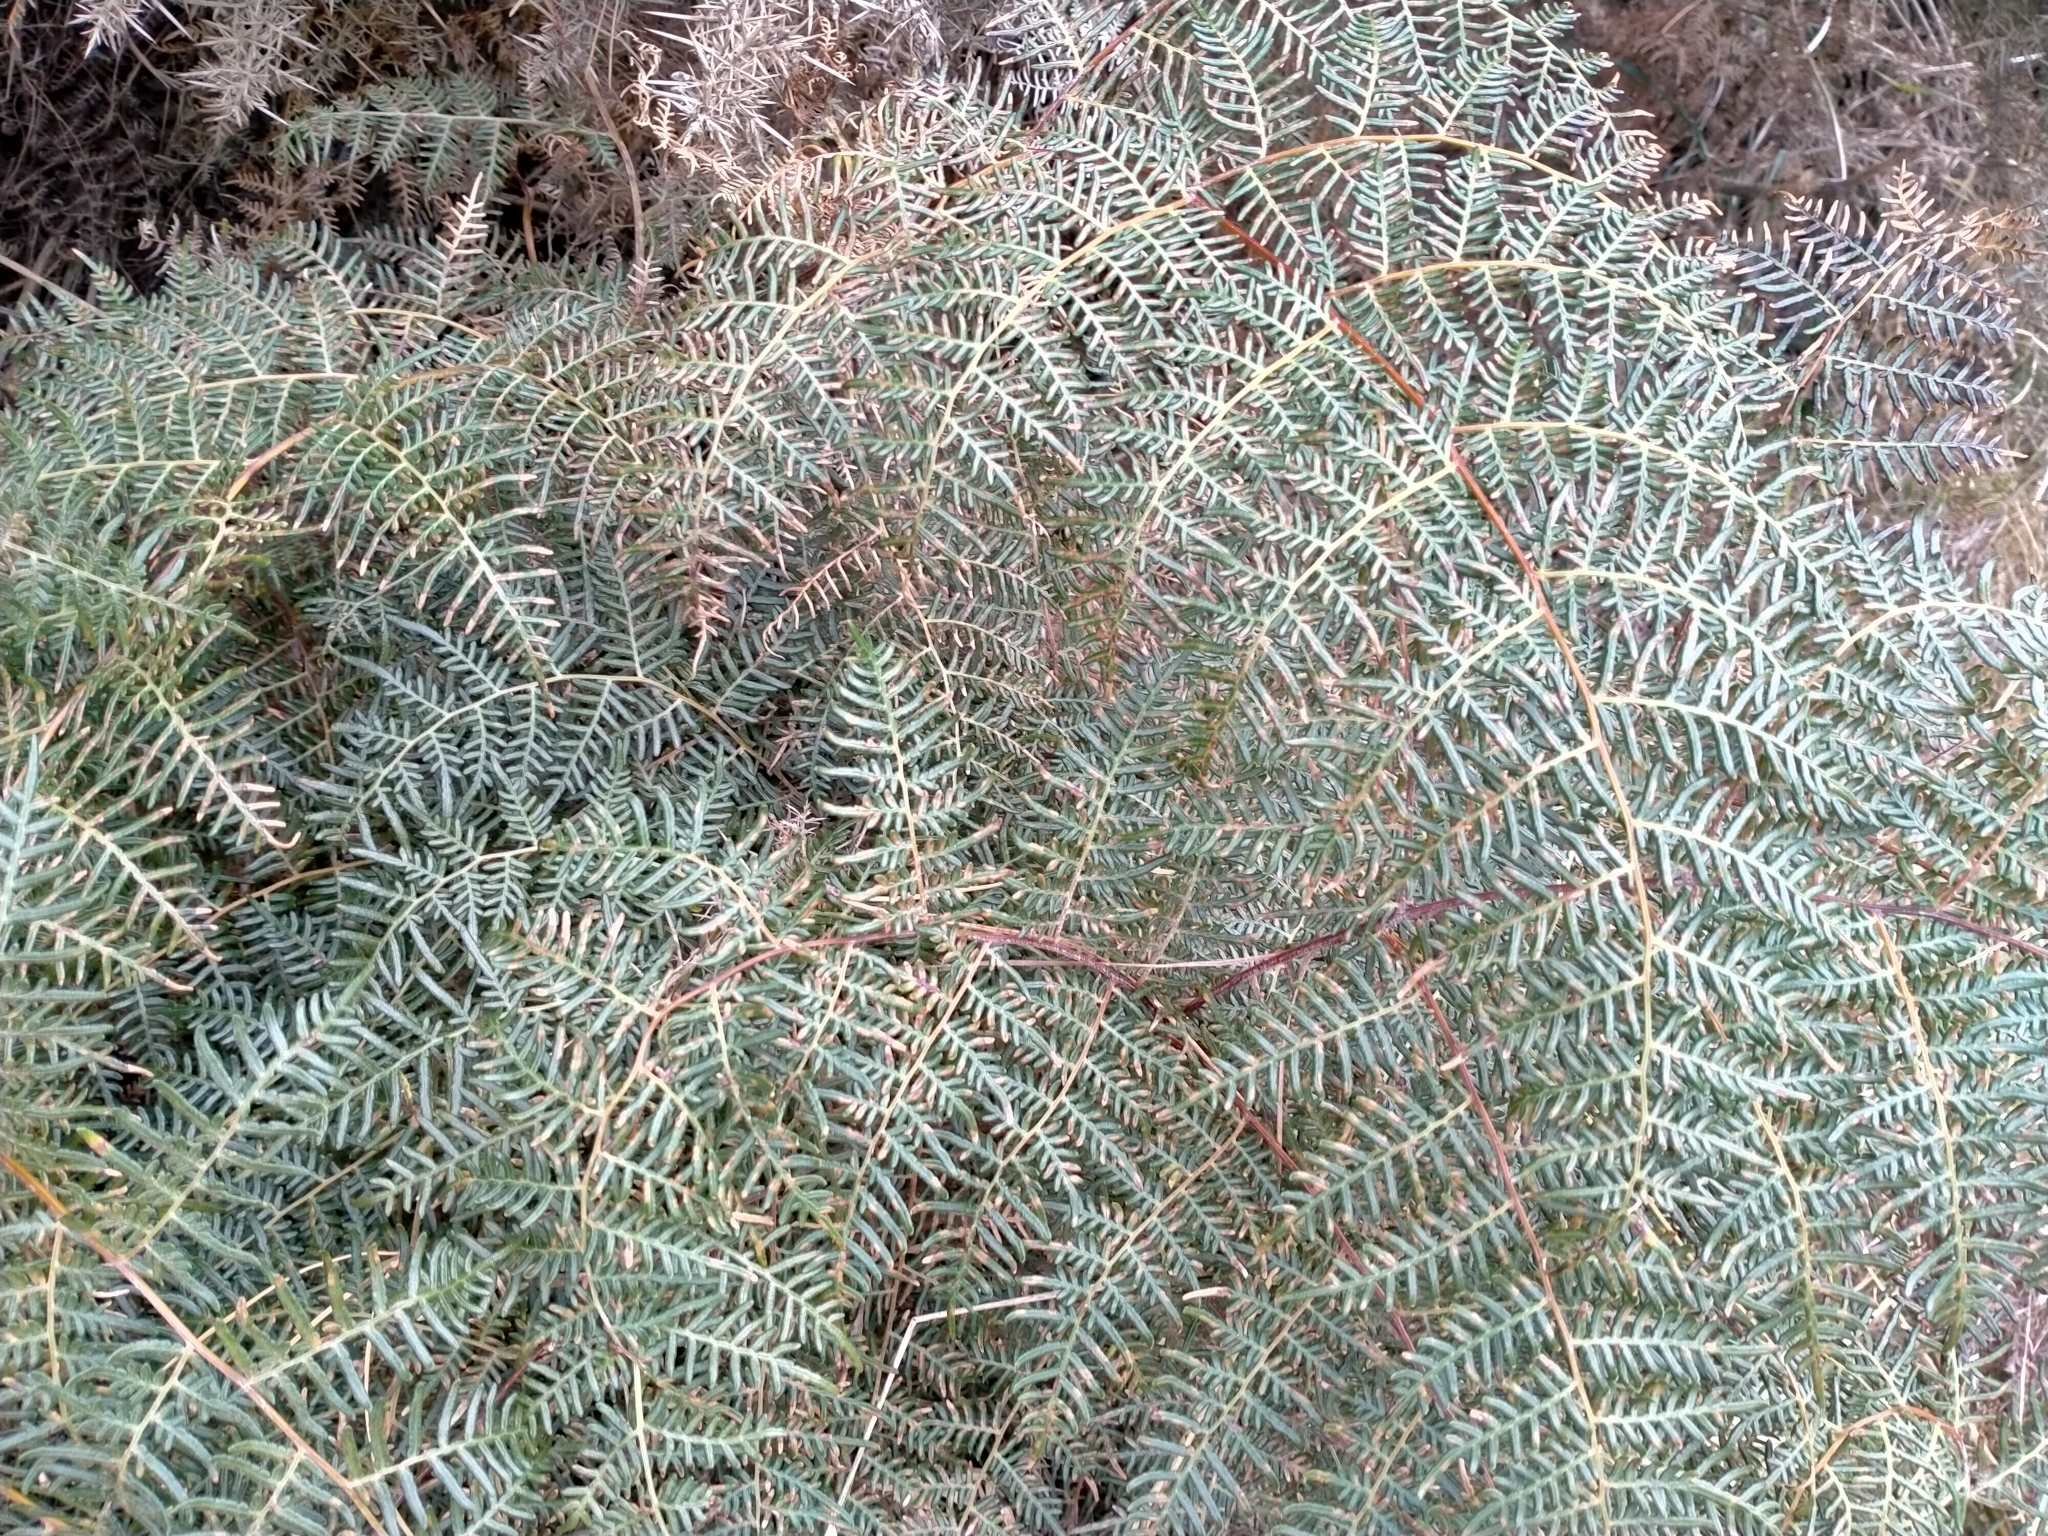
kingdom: Plantae
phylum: Tracheophyta
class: Polypodiopsida
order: Polypodiales
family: Dennstaedtiaceae
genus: Pteridium
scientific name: Pteridium esculentum
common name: Bracken fern
